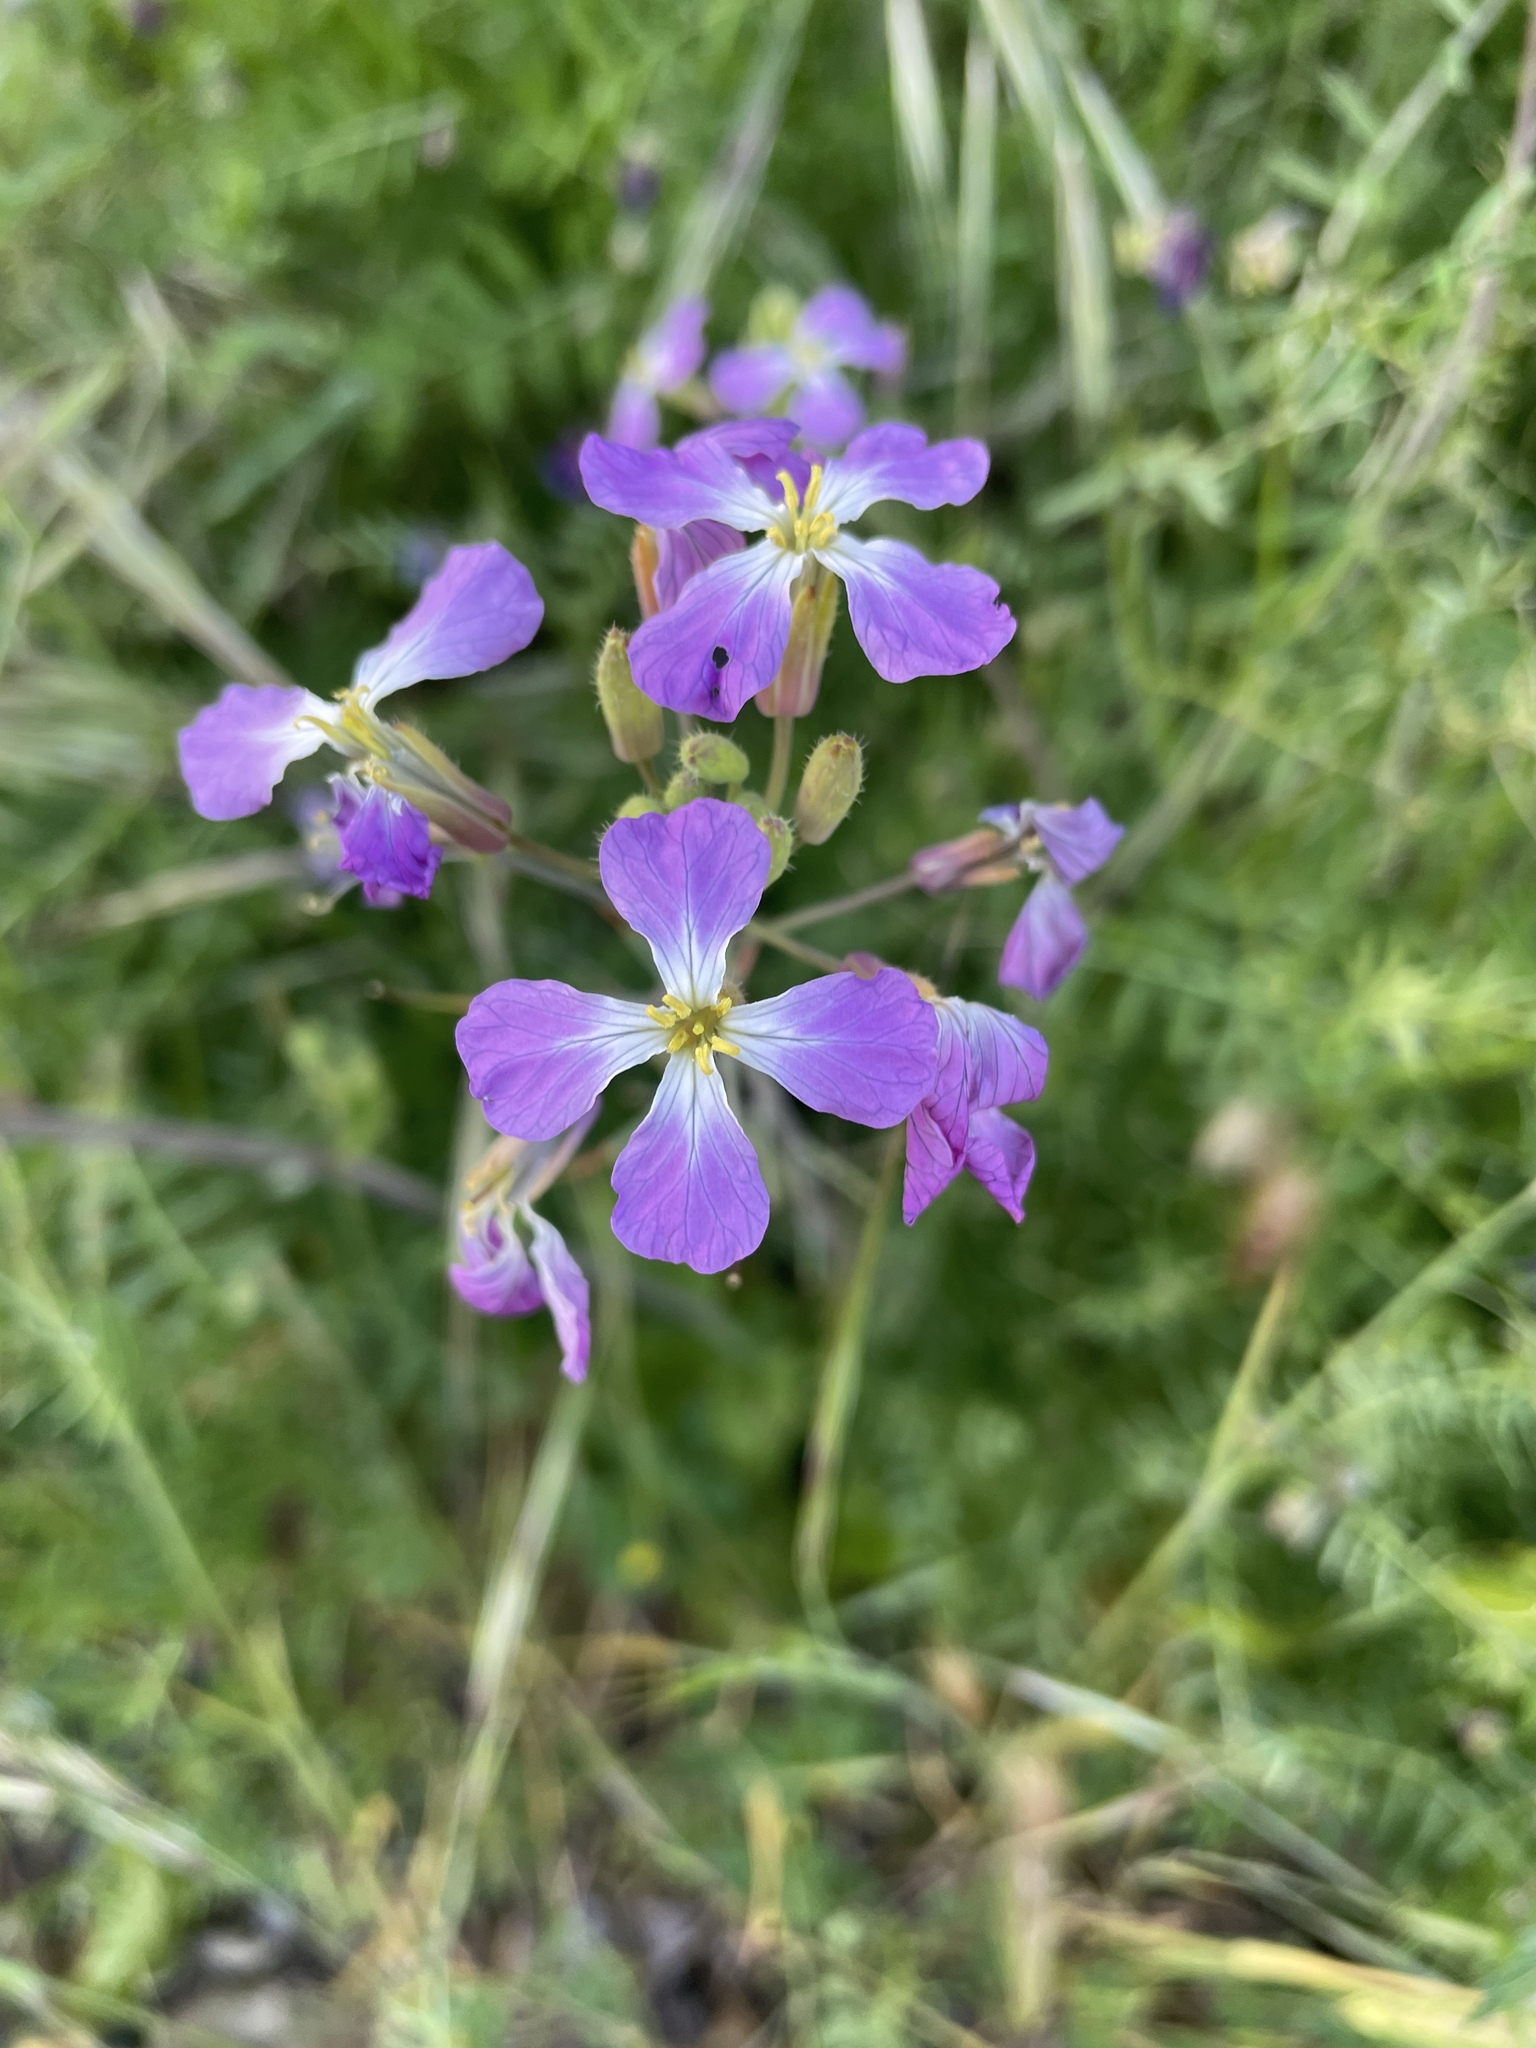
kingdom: Plantae
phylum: Tracheophyta
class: Magnoliopsida
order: Brassicales
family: Brassicaceae
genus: Raphanus
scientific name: Raphanus sativus
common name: Cultivated radish
